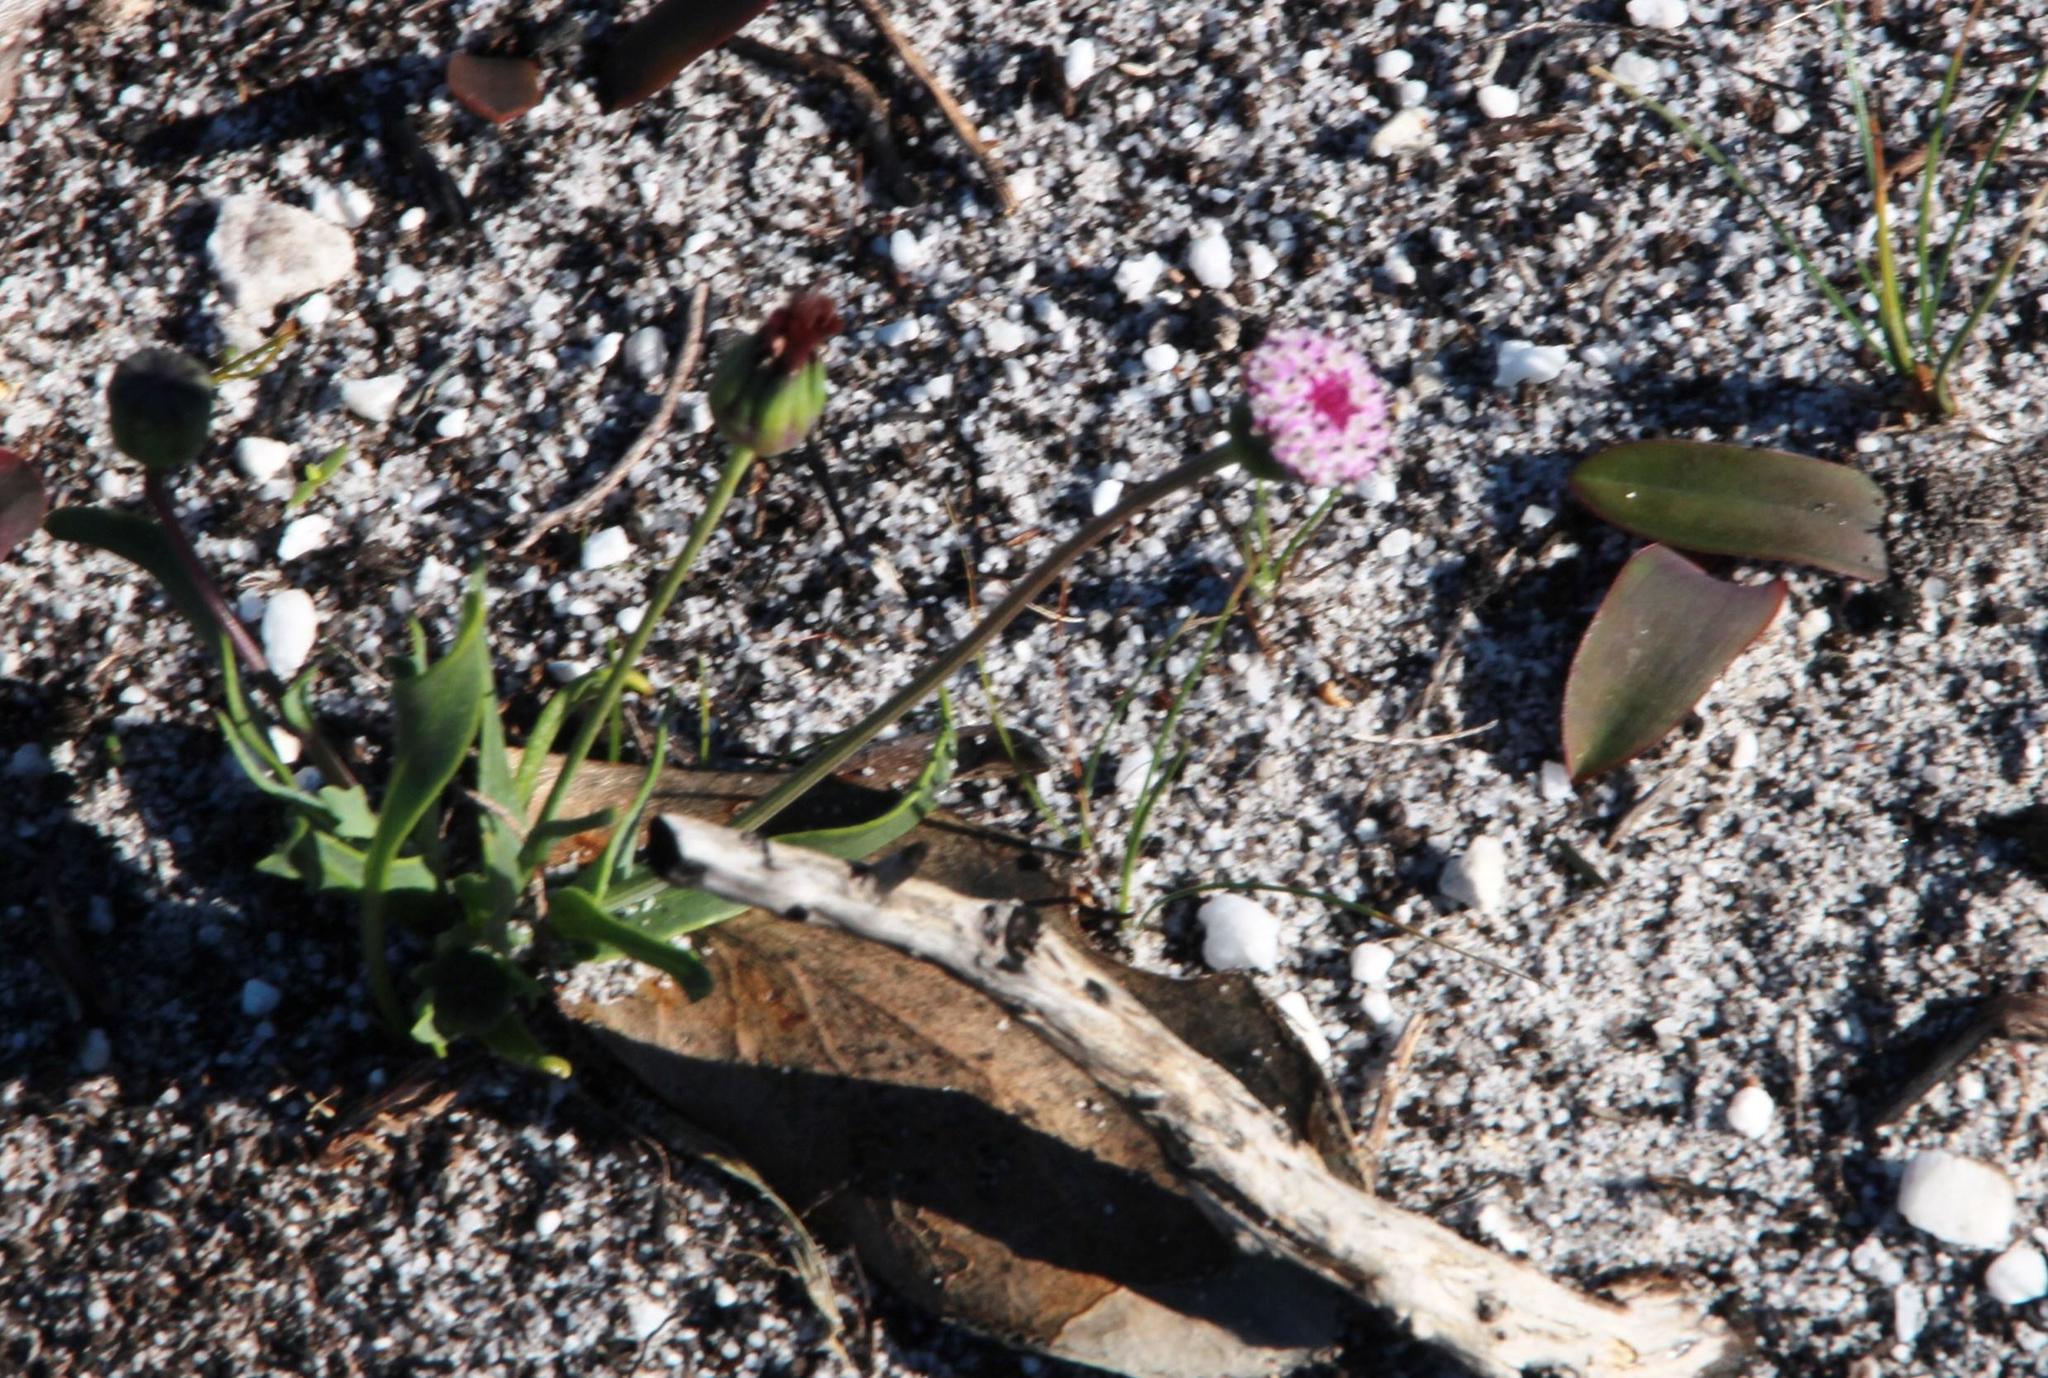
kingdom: Plantae
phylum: Tracheophyta
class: Magnoliopsida
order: Asterales
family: Asteraceae
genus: Othonna
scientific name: Othonna digitata
